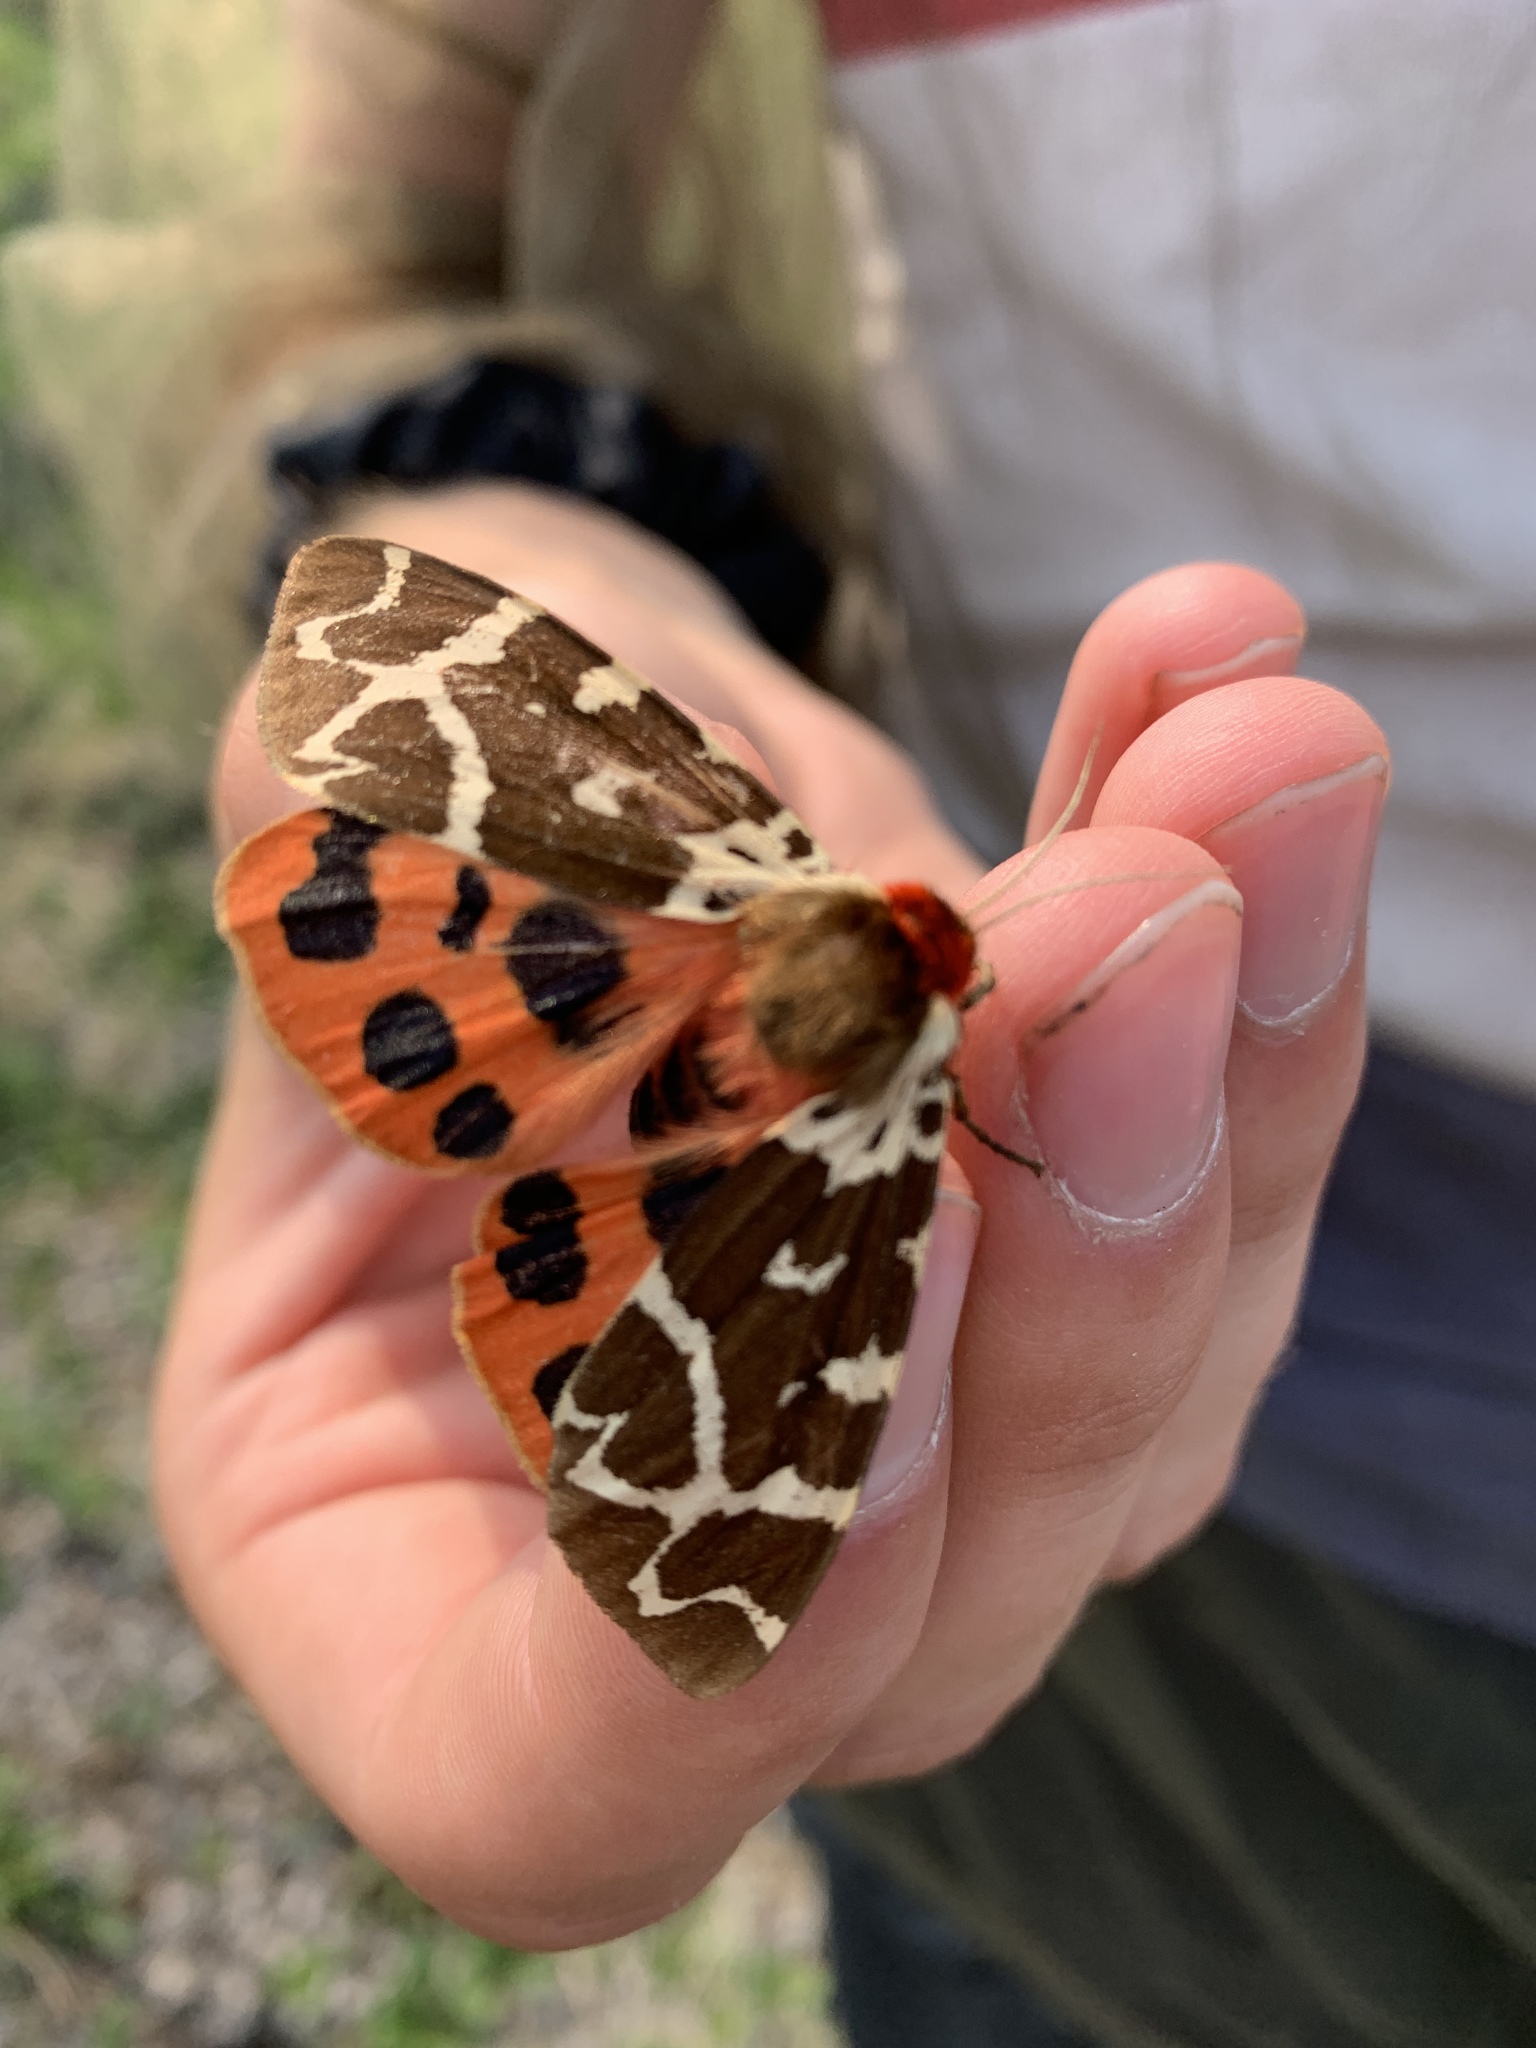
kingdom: Animalia
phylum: Arthropoda
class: Insecta
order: Lepidoptera
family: Erebidae
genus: Arctia
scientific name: Arctia opulenta
